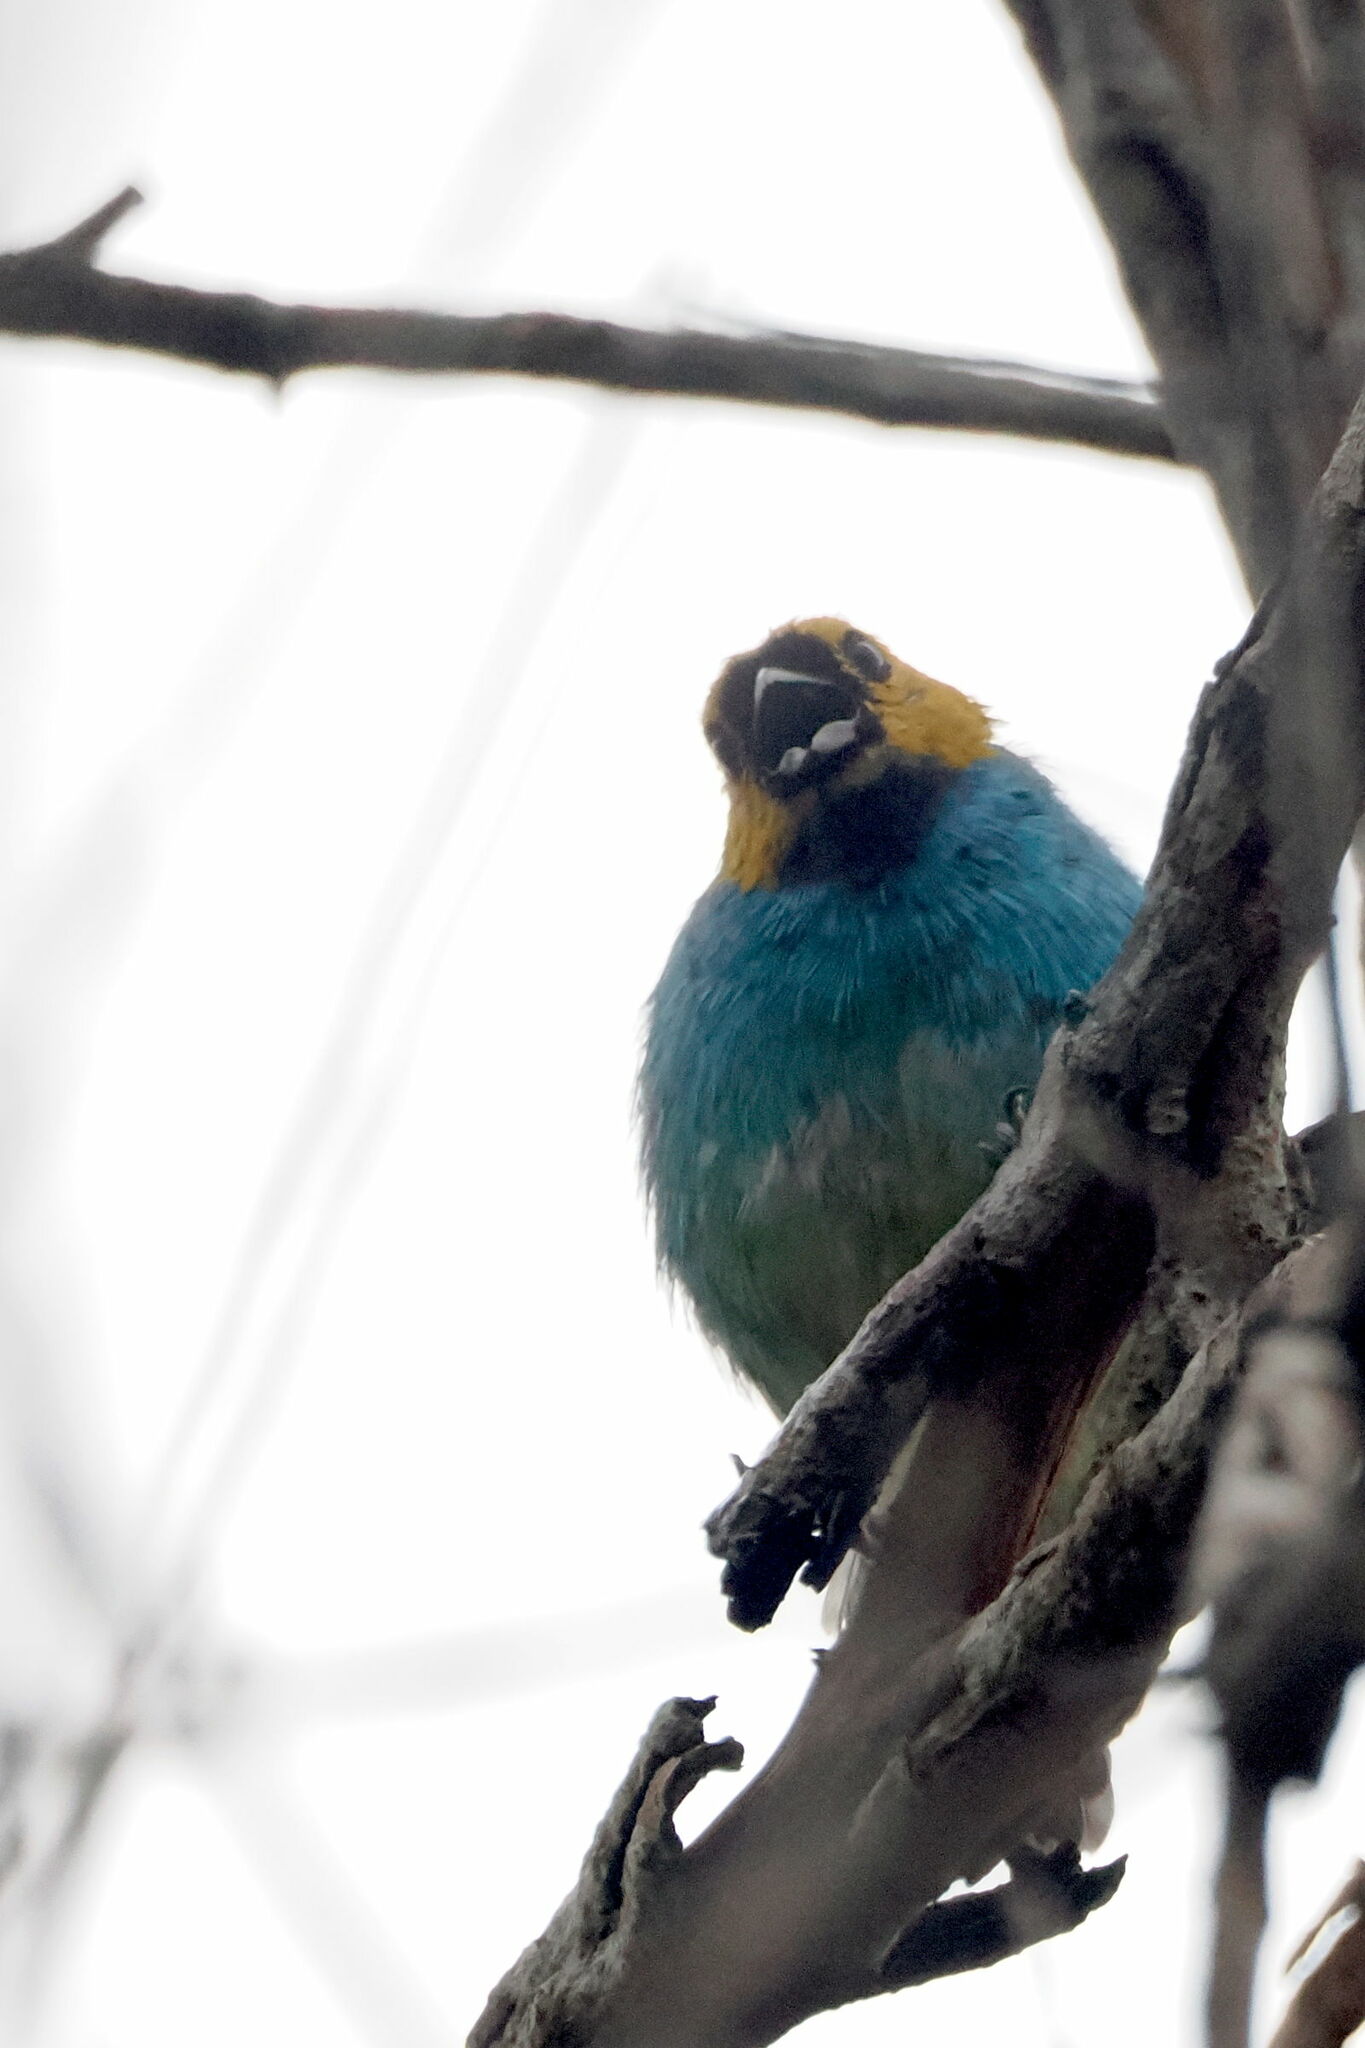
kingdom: Animalia
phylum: Chordata
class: Aves
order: Passeriformes
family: Thraupidae
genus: Tangara
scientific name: Tangara cyanoventris
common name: Gilt-edged tanager
